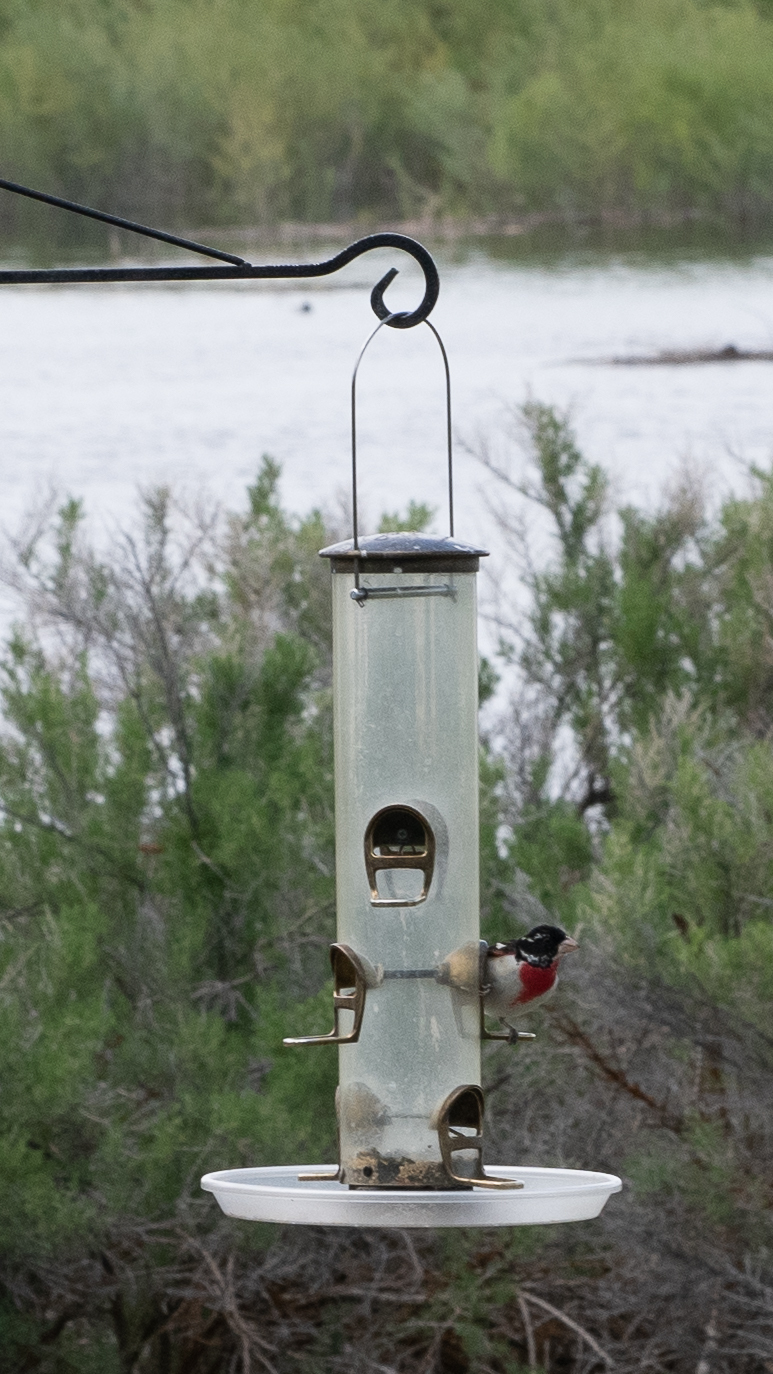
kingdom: Animalia
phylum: Chordata
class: Aves
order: Passeriformes
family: Cardinalidae
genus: Pheucticus
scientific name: Pheucticus ludovicianus
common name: Rose-breasted grosbeak
